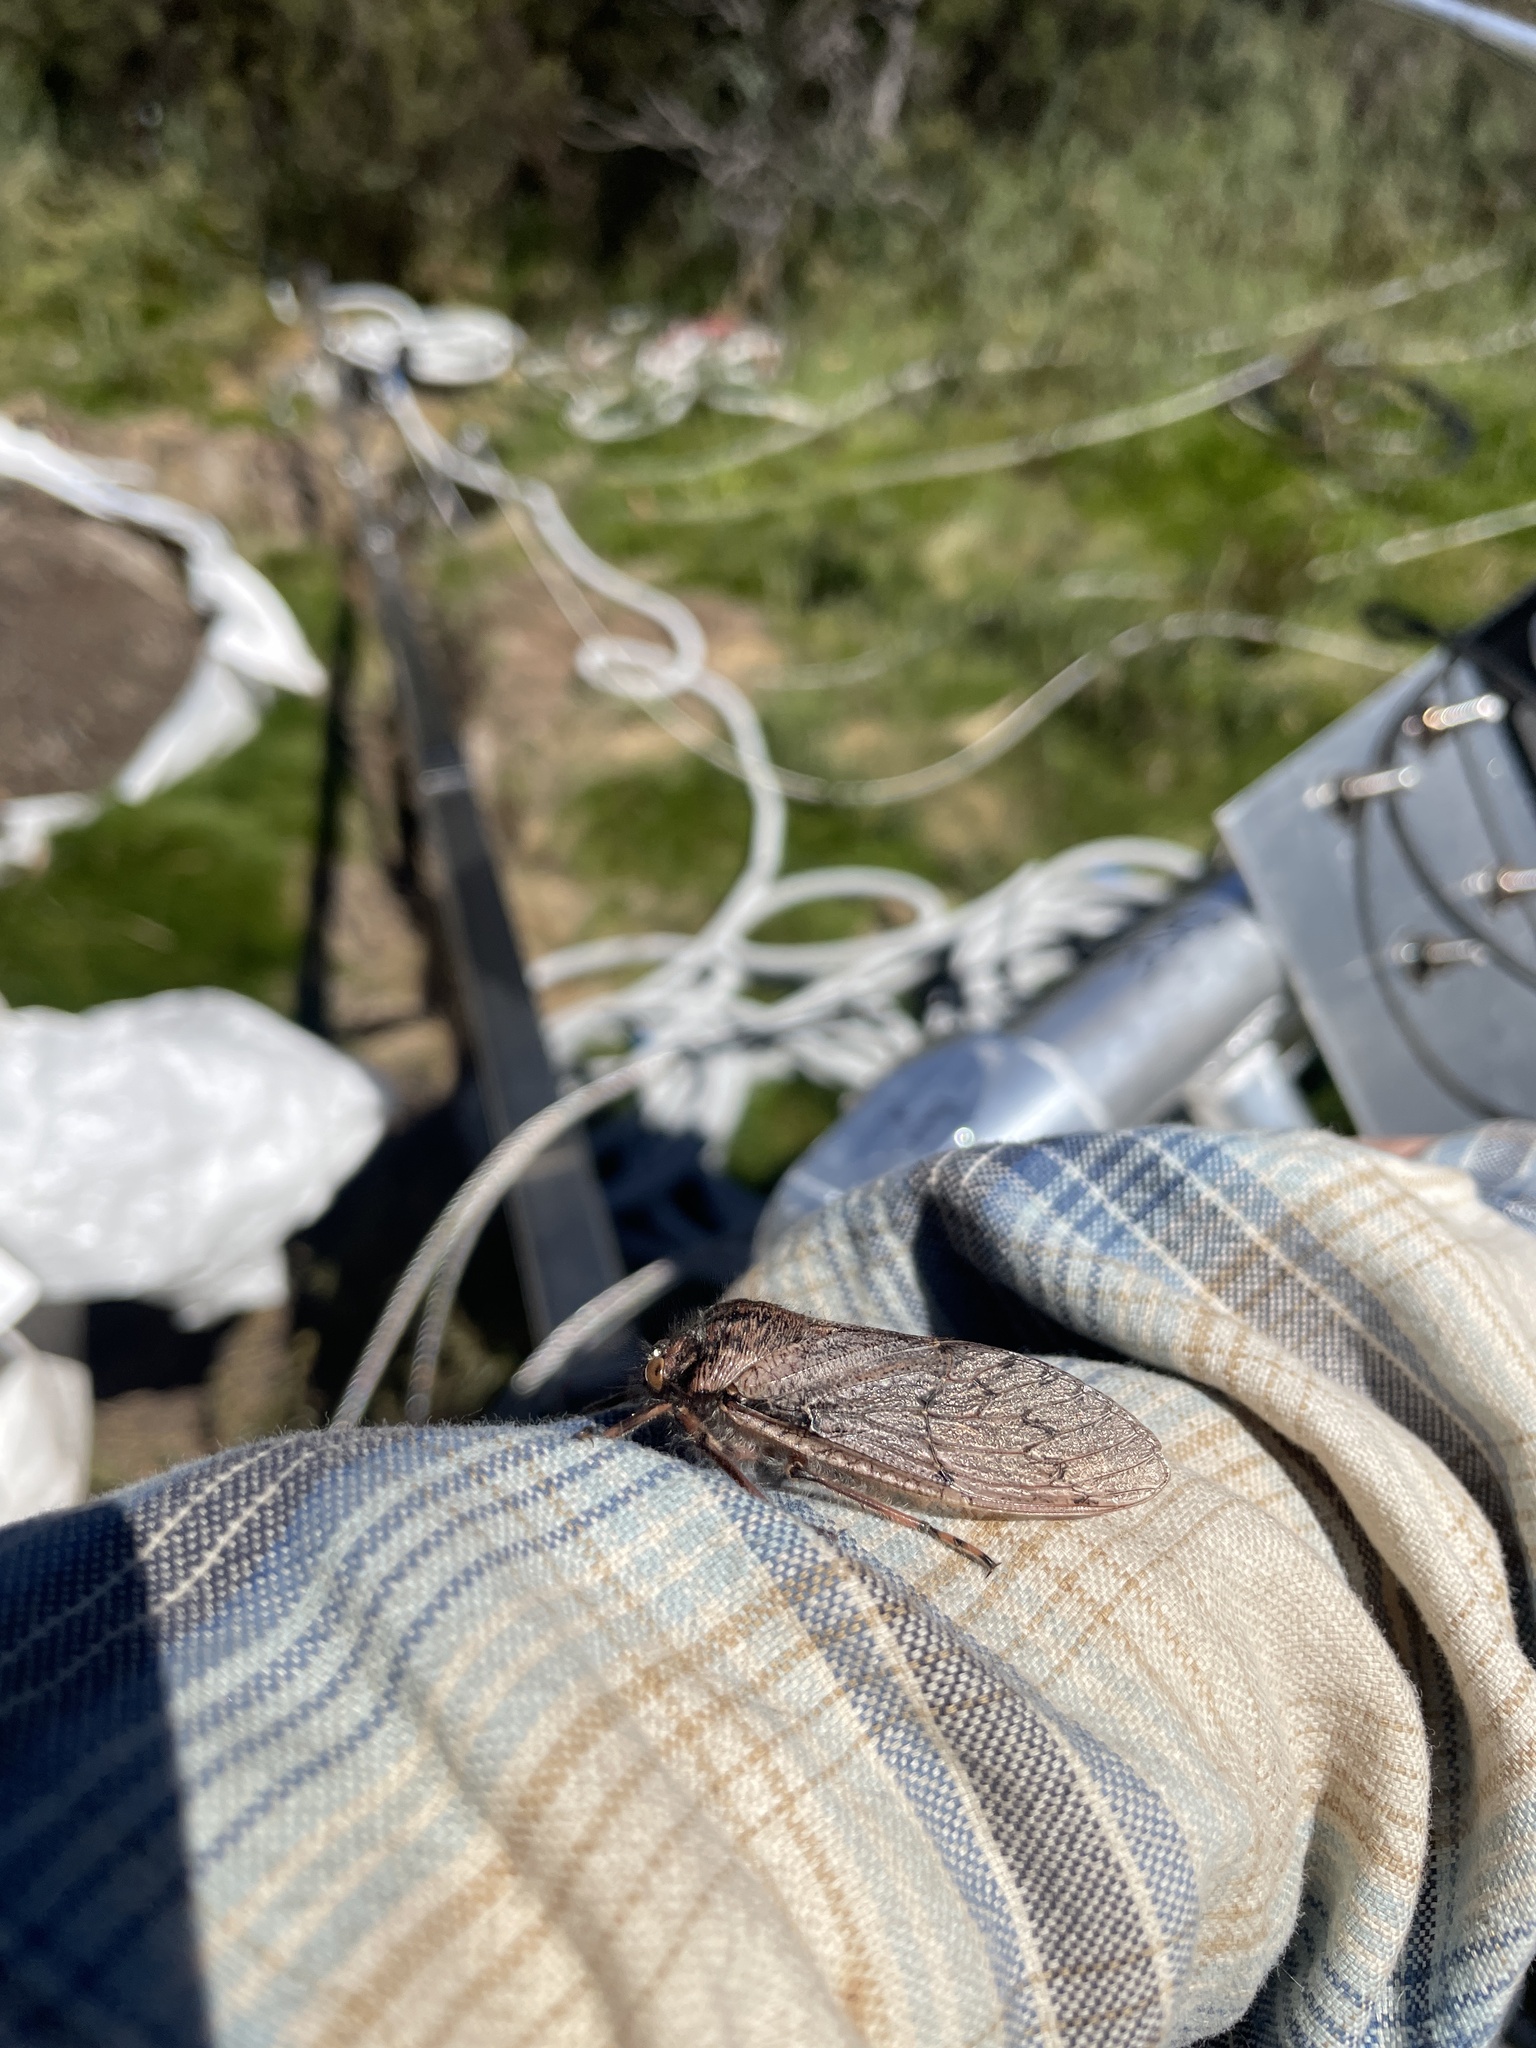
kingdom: Animalia
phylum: Arthropoda
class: Insecta
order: Hemiptera
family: Tettigarctidae
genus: Tettigarcta
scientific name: Tettigarcta crinita
